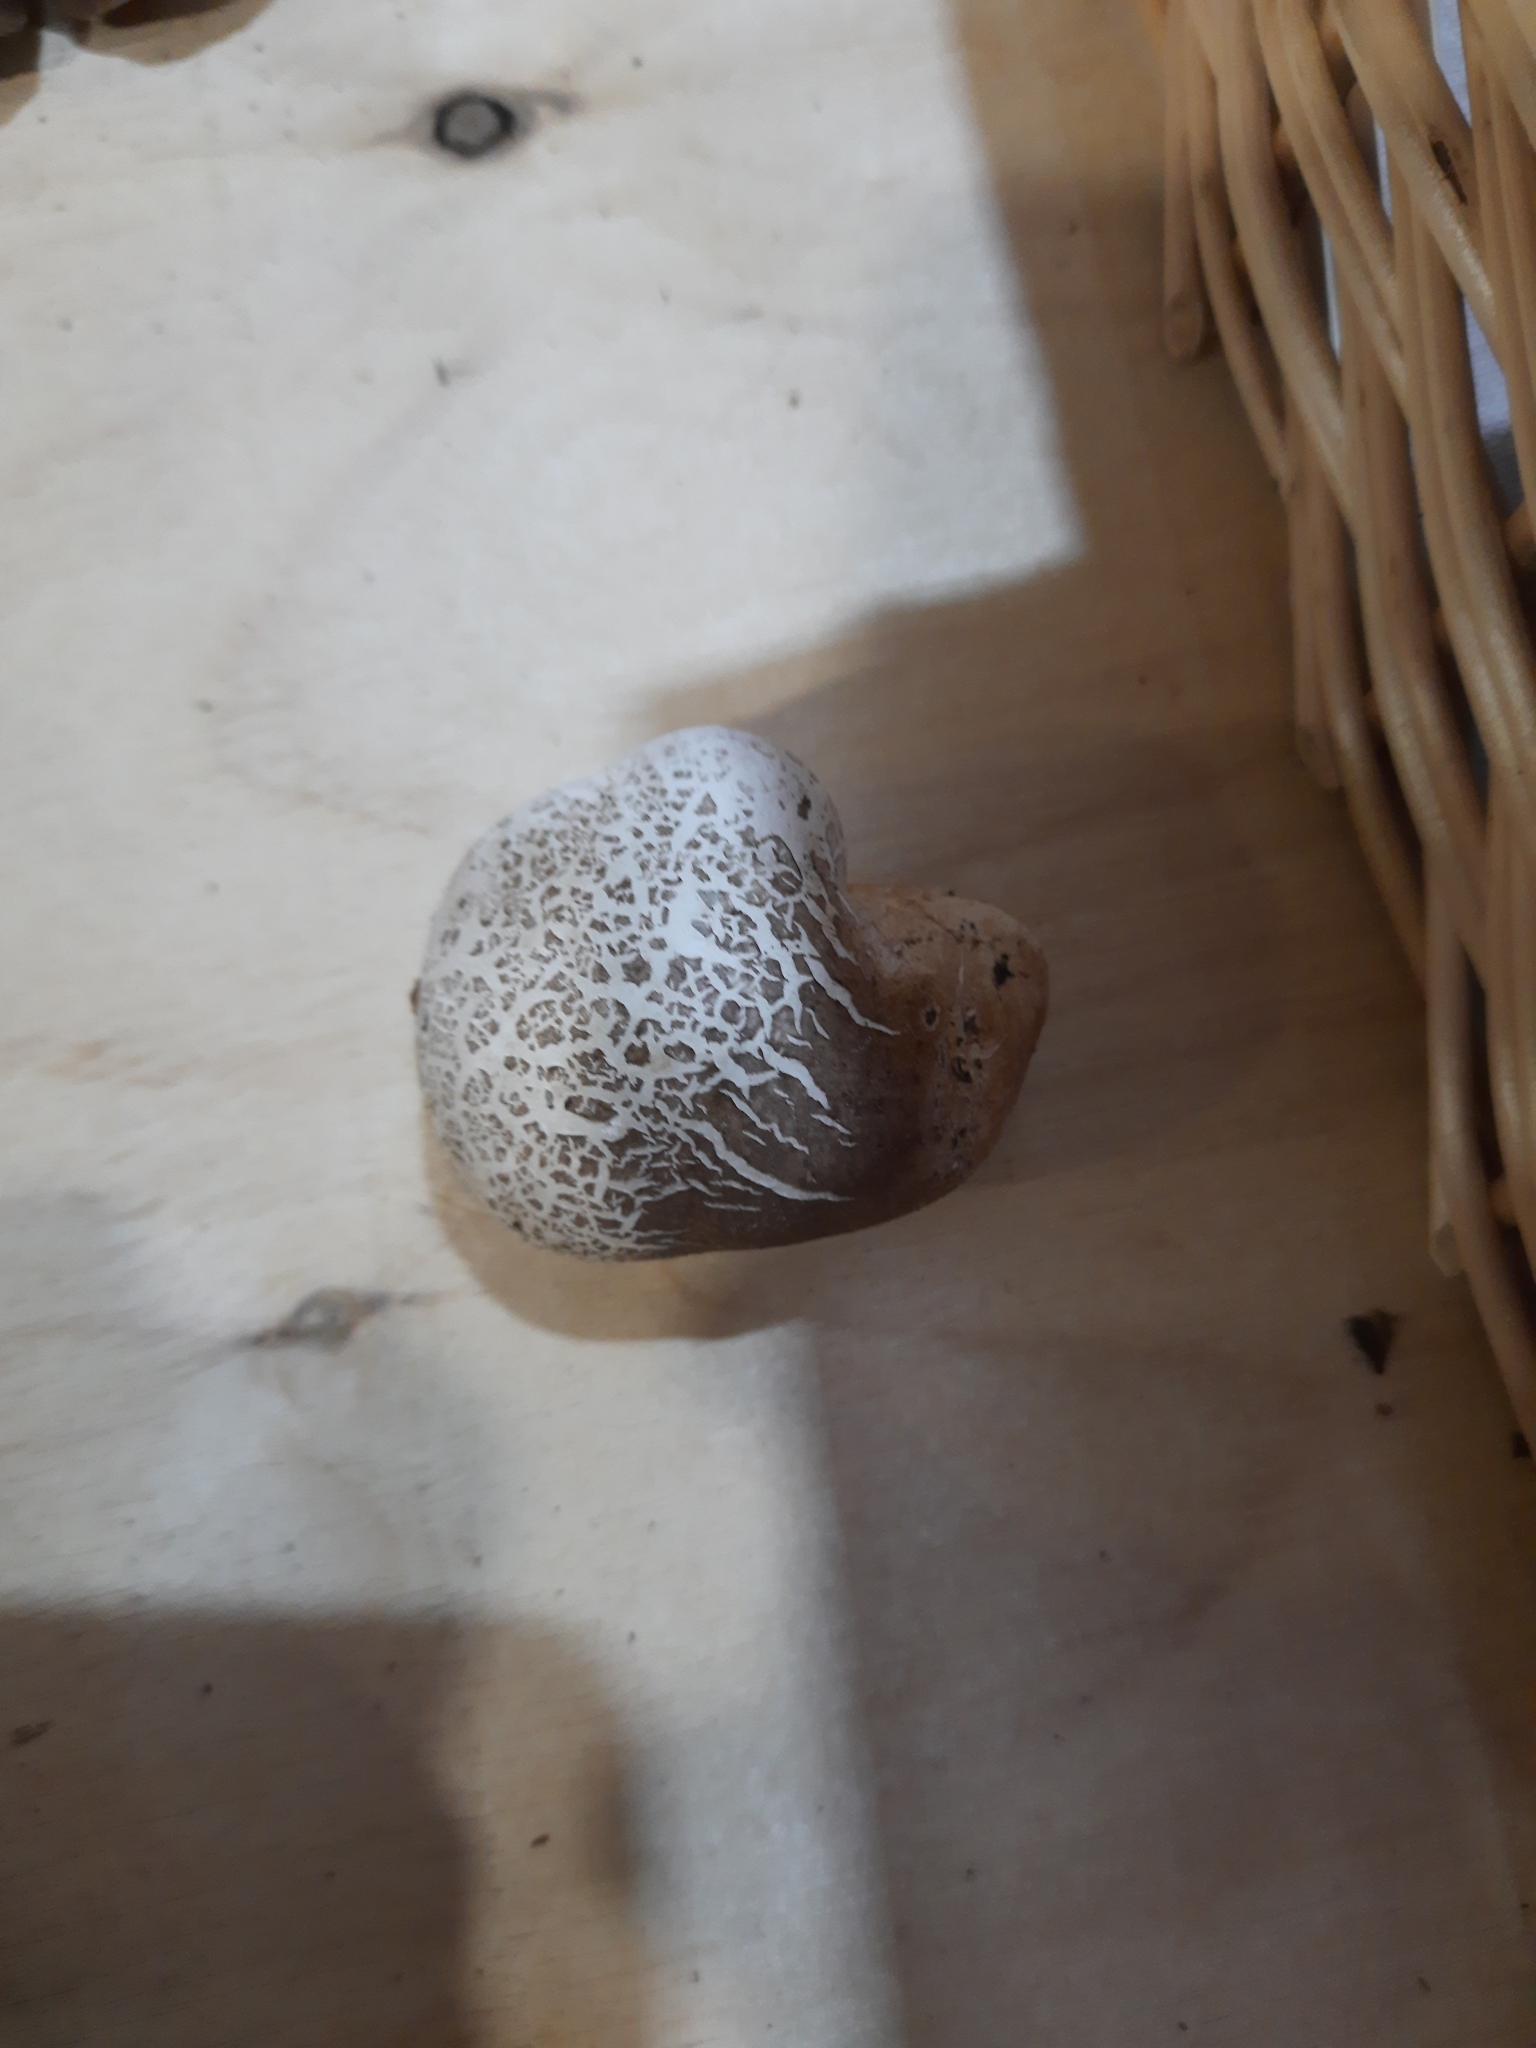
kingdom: Fungi
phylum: Basidiomycota
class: Agaricomycetes
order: Polyporales
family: Fomitopsidaceae
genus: Fomitopsis
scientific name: Fomitopsis betulina
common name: Birch polypore
